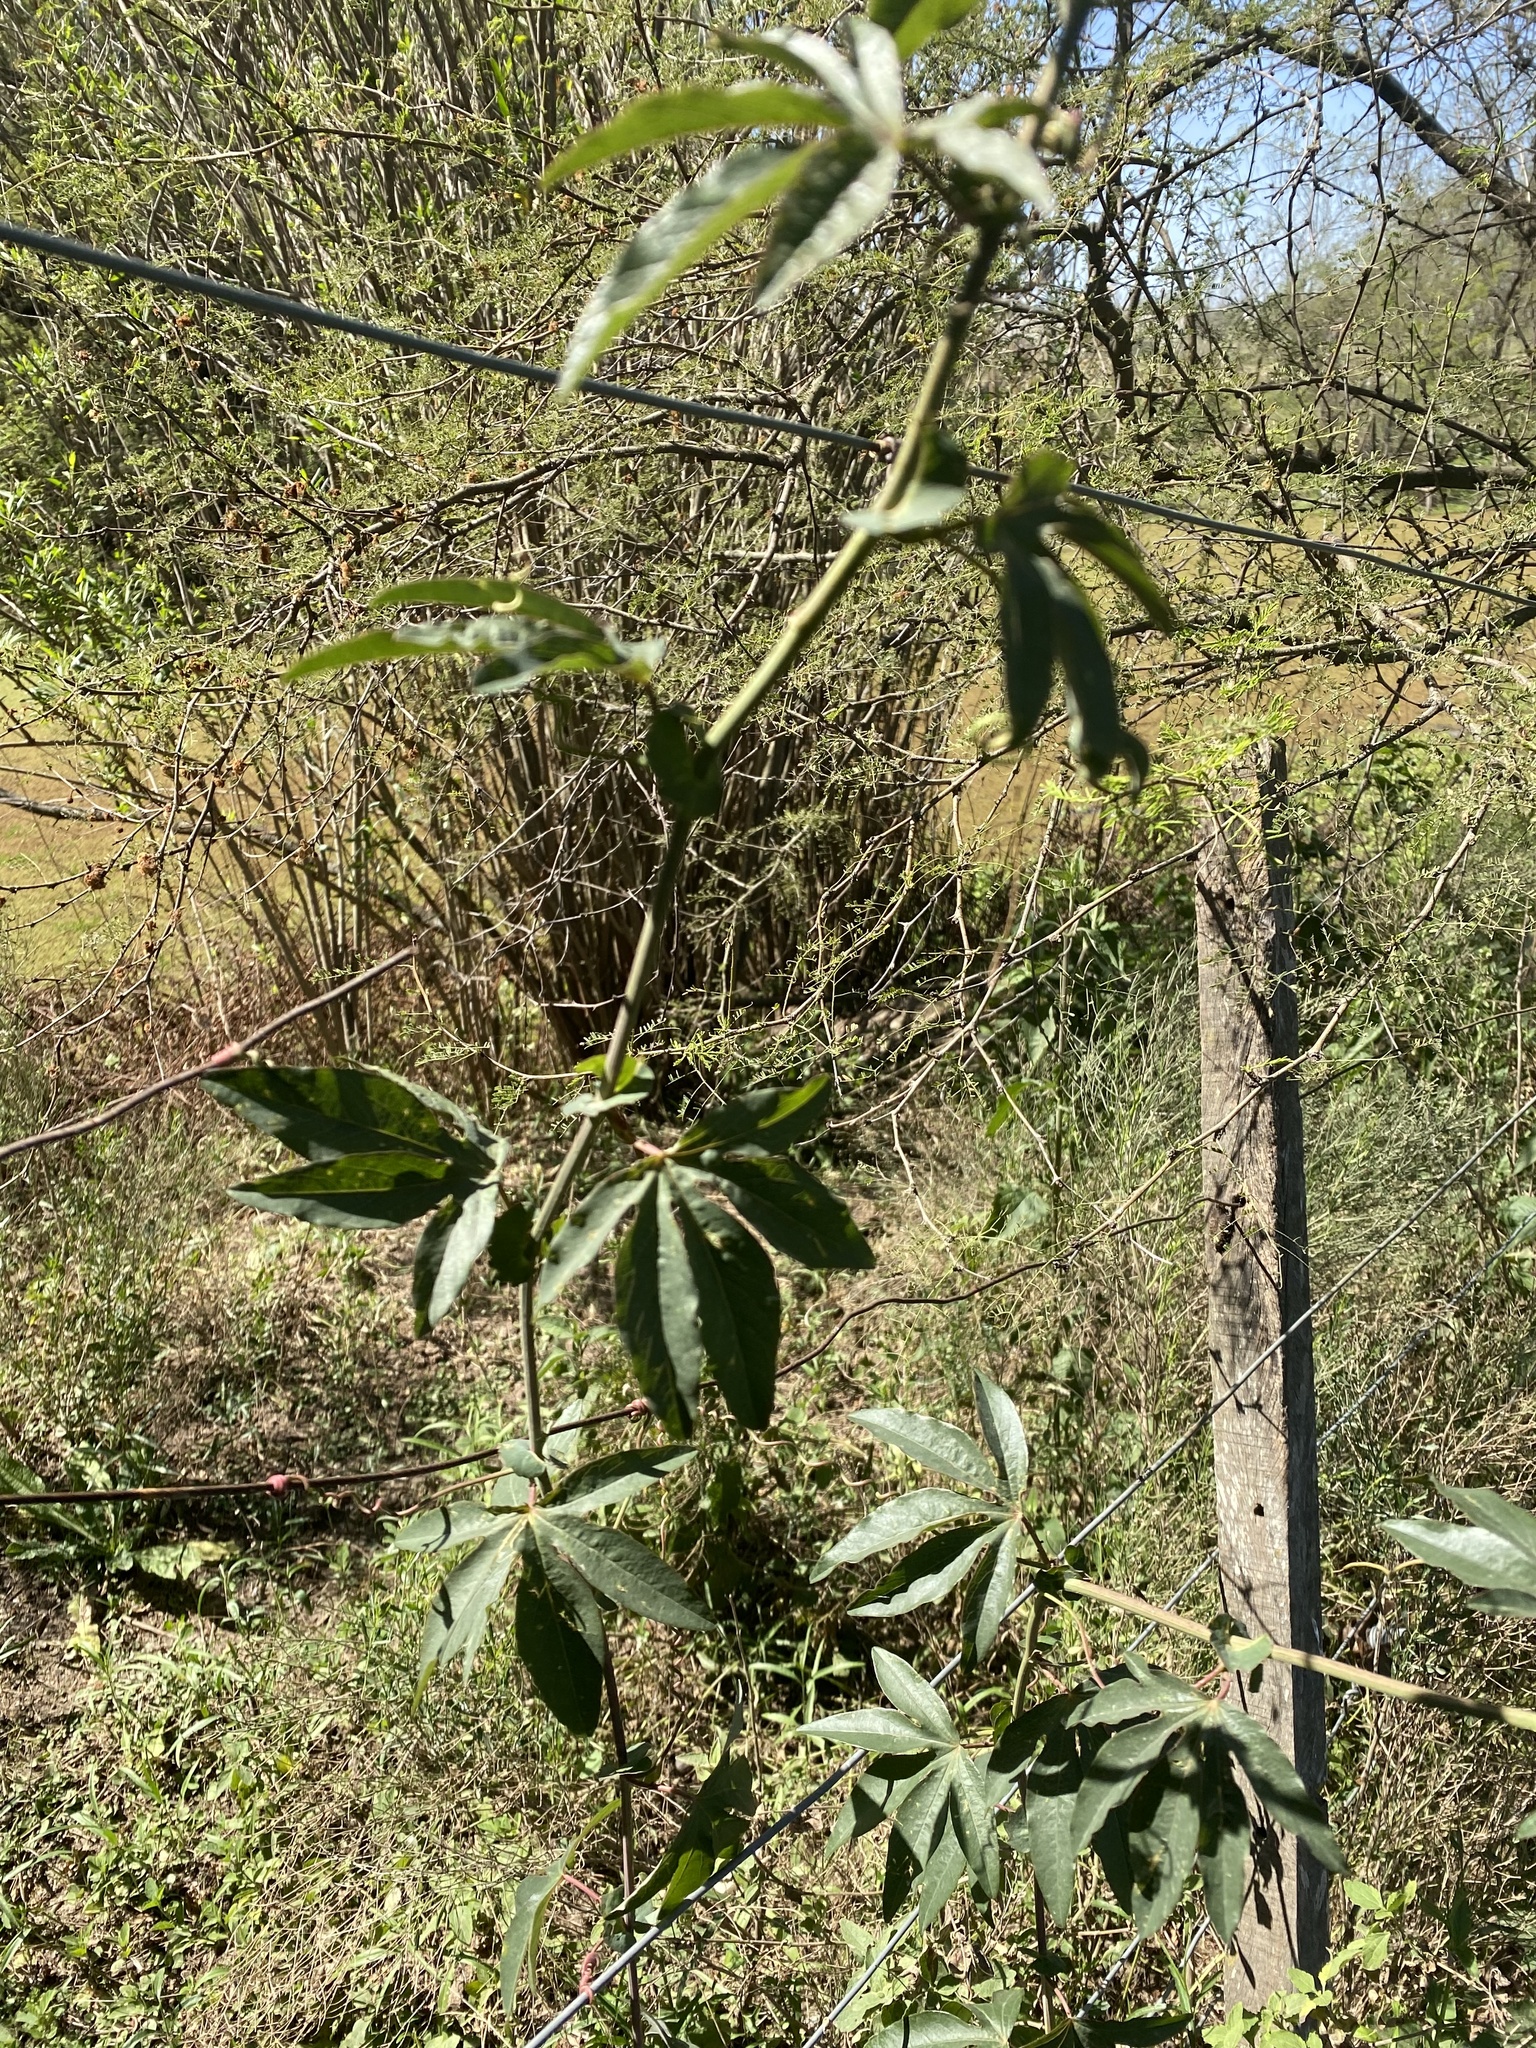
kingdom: Plantae
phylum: Tracheophyta
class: Magnoliopsida
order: Malpighiales
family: Passifloraceae
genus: Passiflora
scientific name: Passiflora caerulea
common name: Blue passionflower
